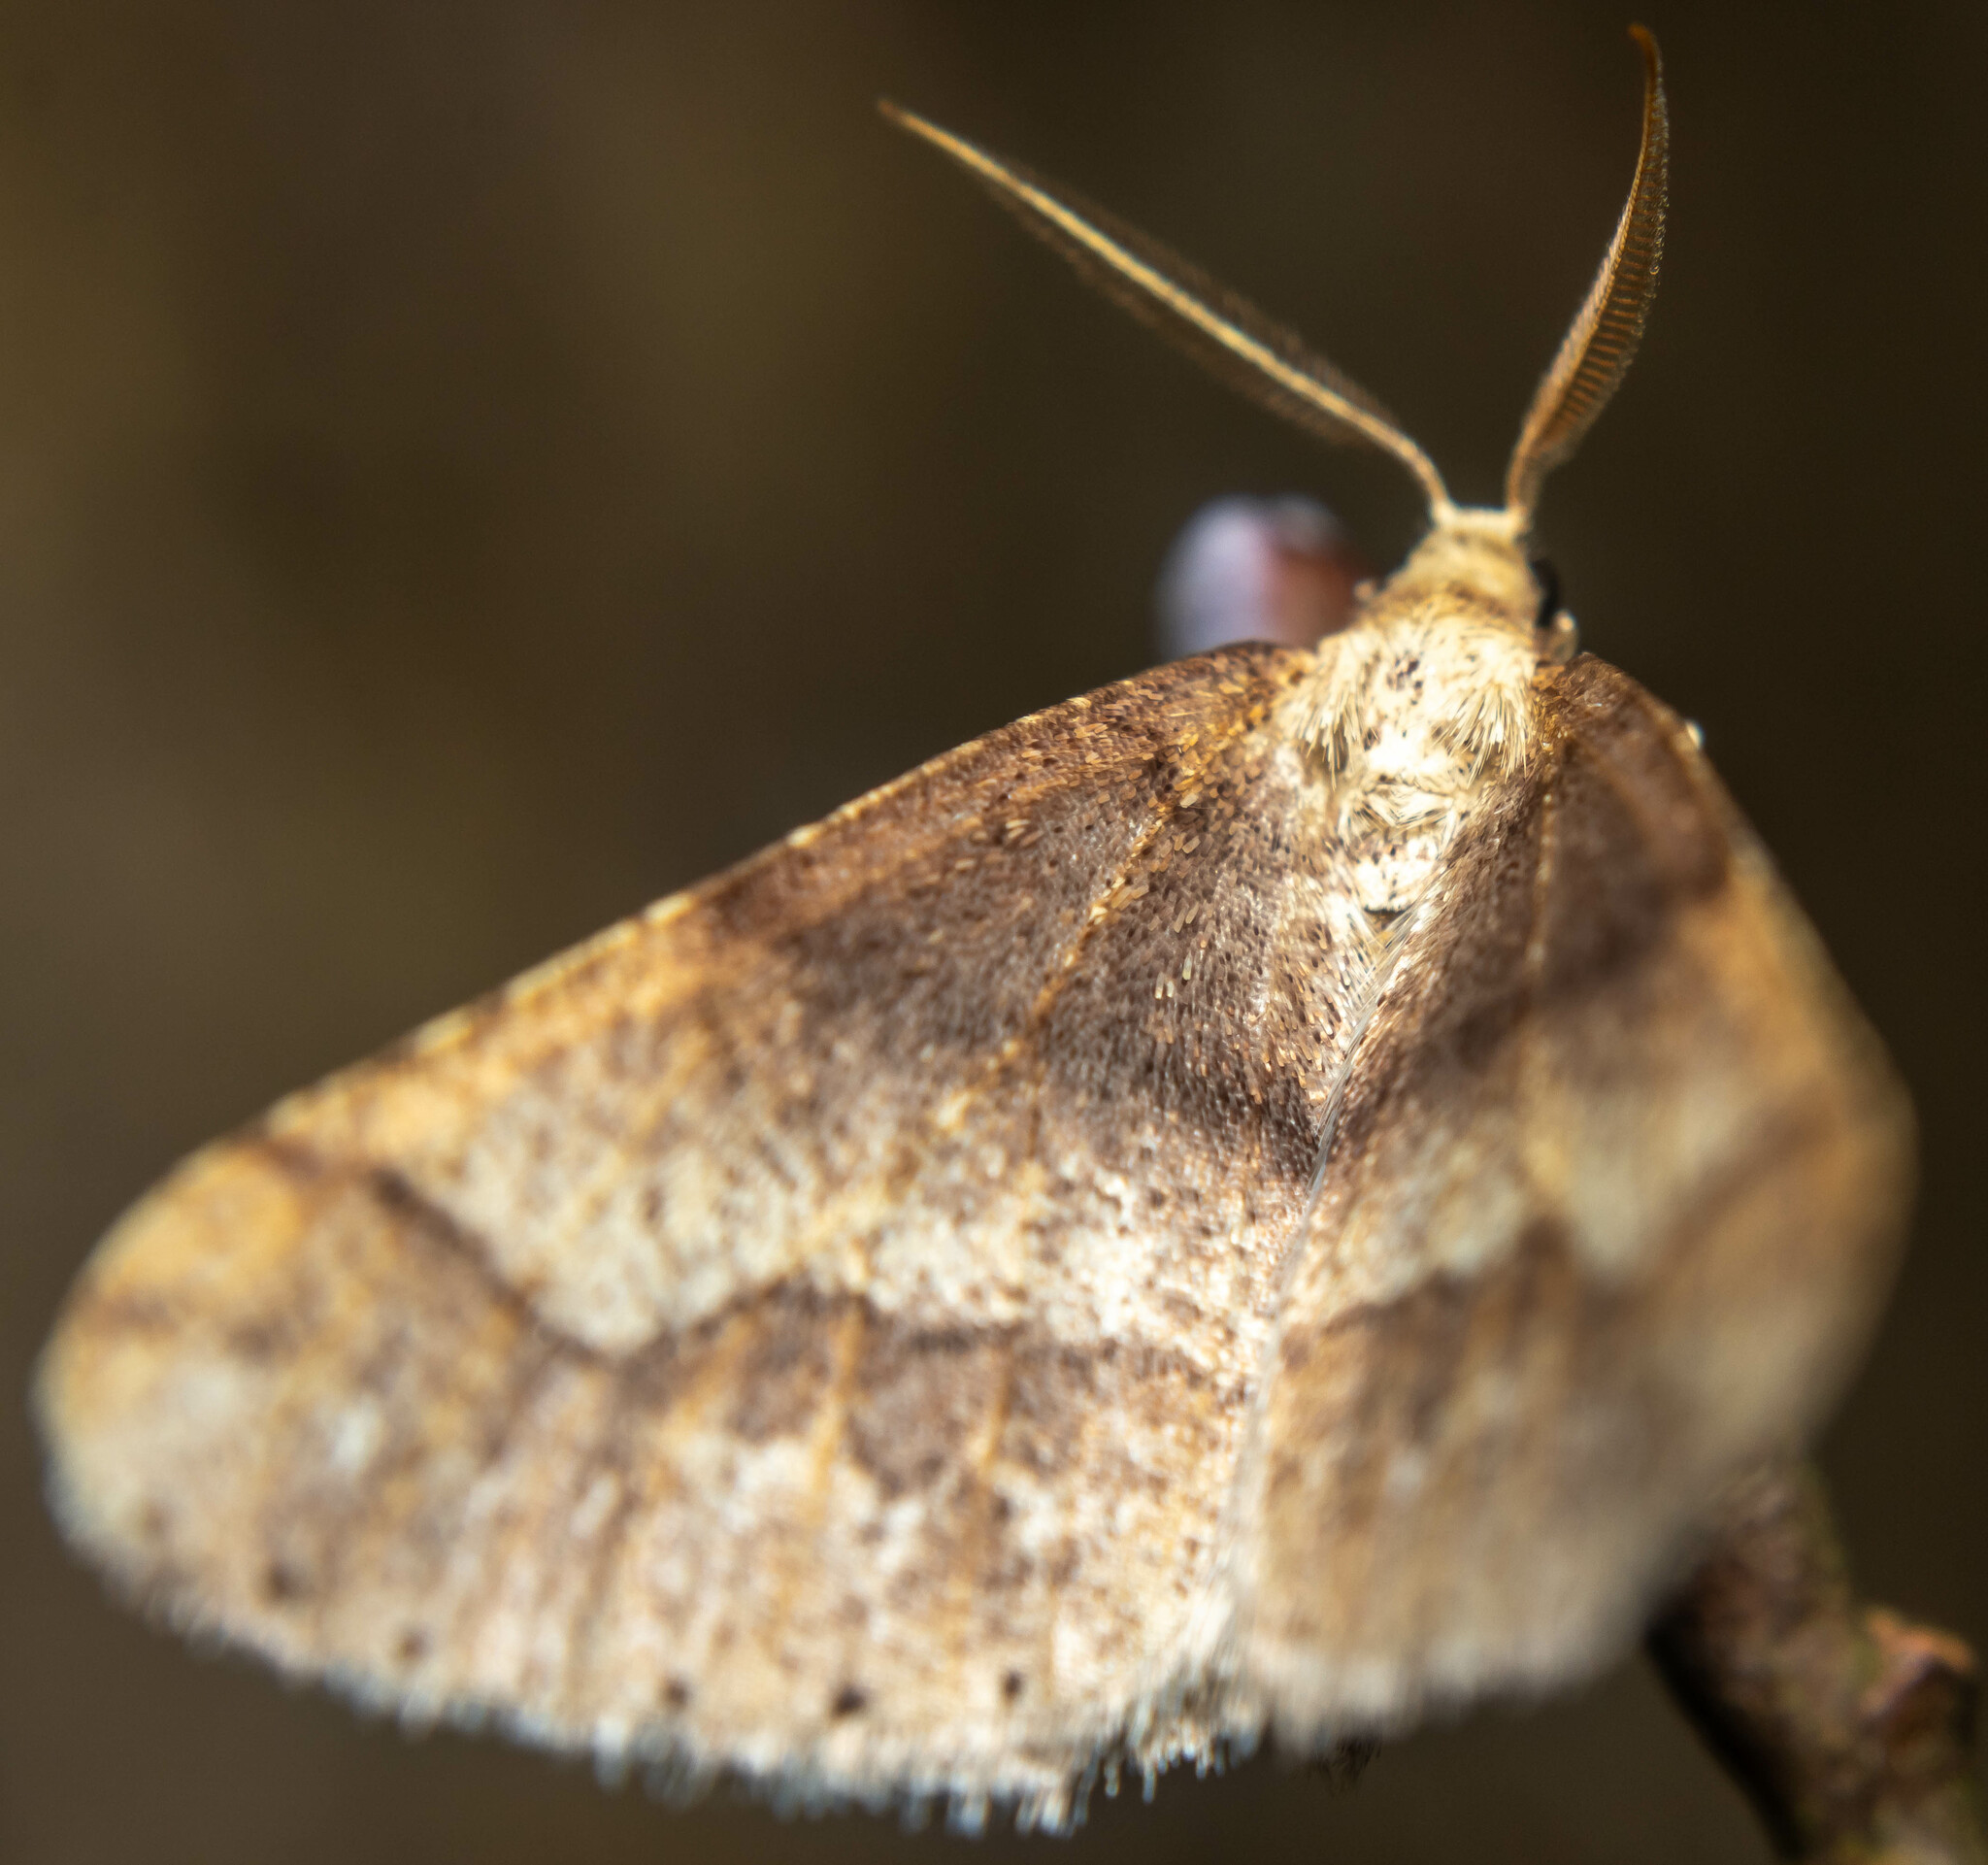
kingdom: Animalia
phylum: Arthropoda
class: Insecta
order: Lepidoptera
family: Geometridae
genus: Agriopis
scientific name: Agriopis marginaria
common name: Dotted border
